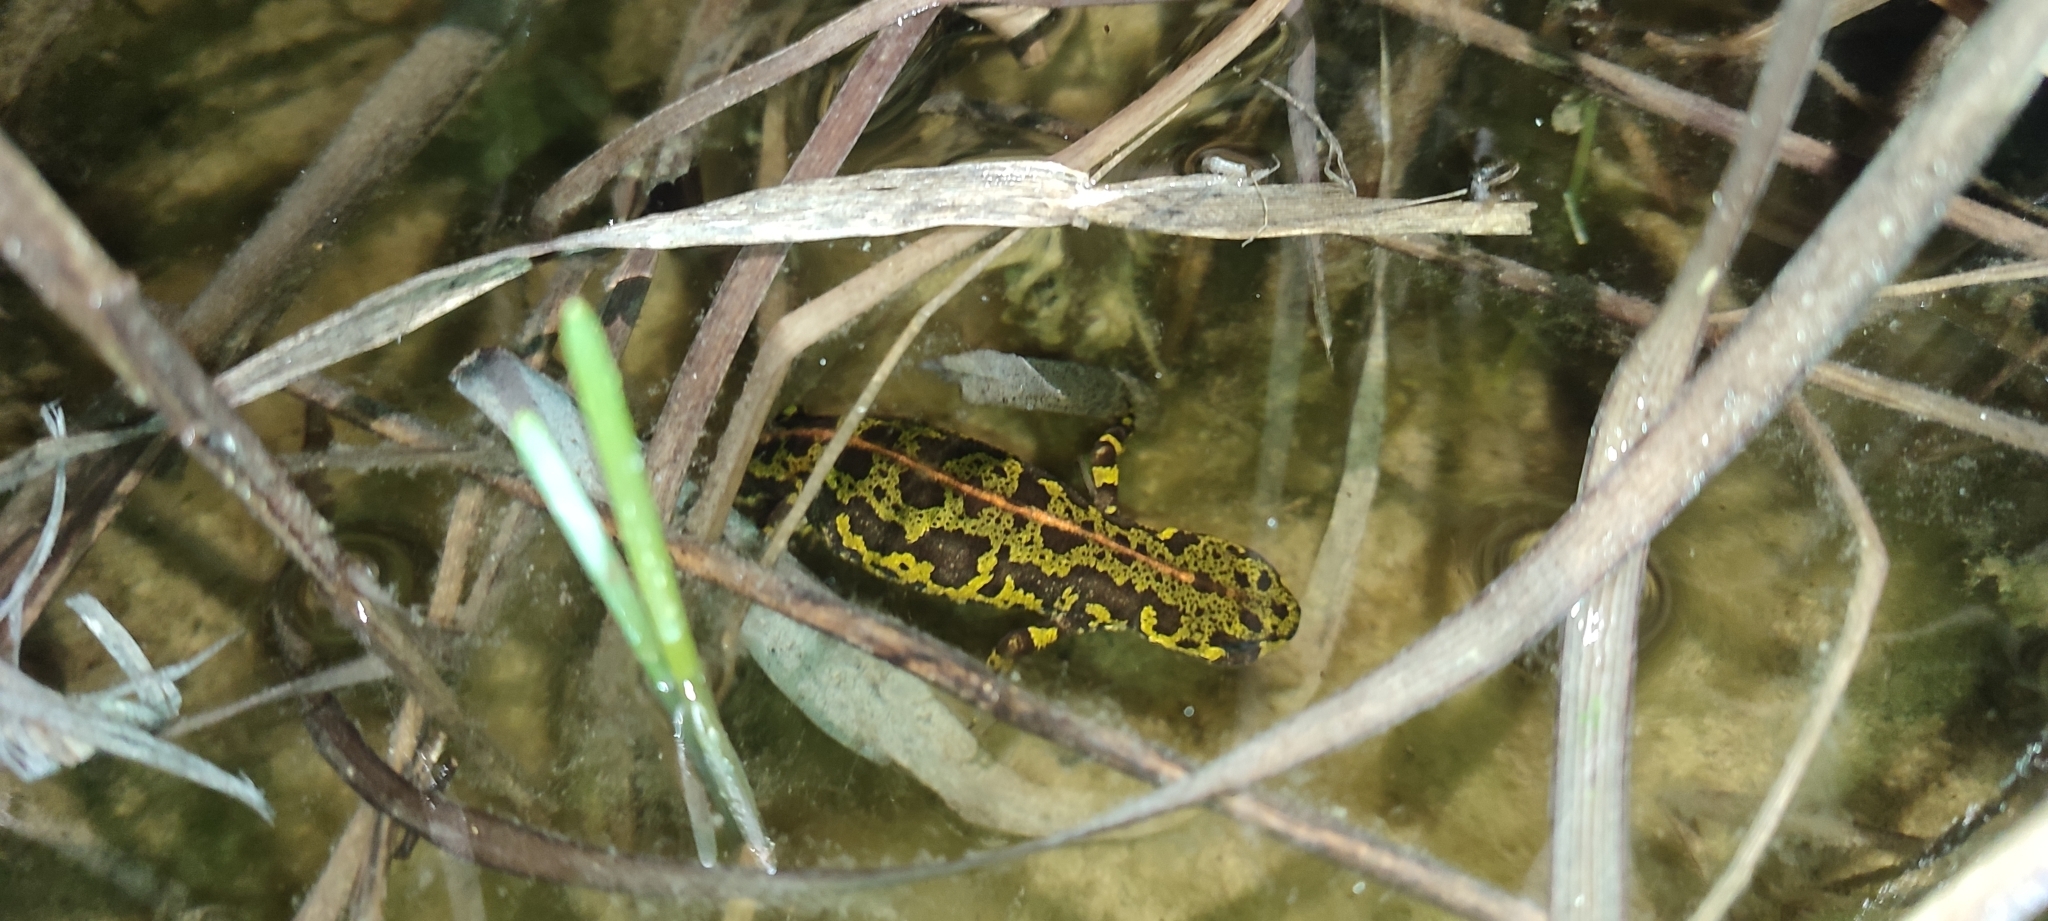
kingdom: Animalia
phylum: Chordata
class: Amphibia
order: Caudata
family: Salamandridae
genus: Triturus
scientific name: Triturus marmoratus
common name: Marbled newt
